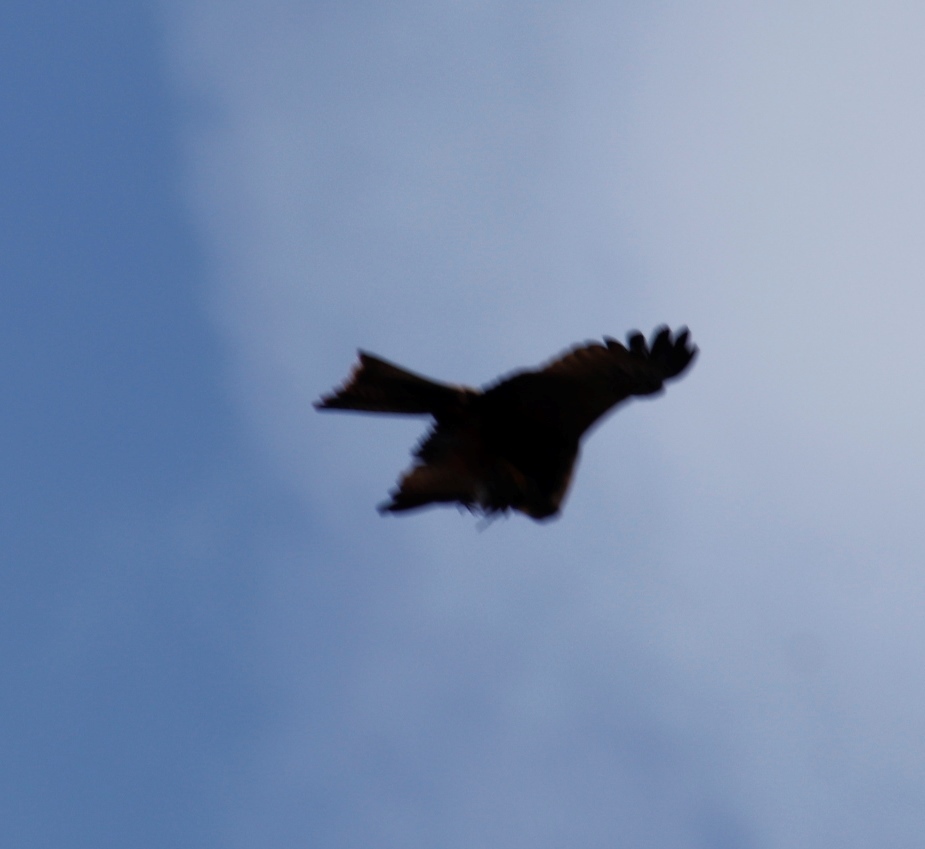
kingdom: Animalia
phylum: Chordata
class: Aves
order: Accipitriformes
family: Accipitridae
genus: Milvus
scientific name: Milvus migrans
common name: Black kite
